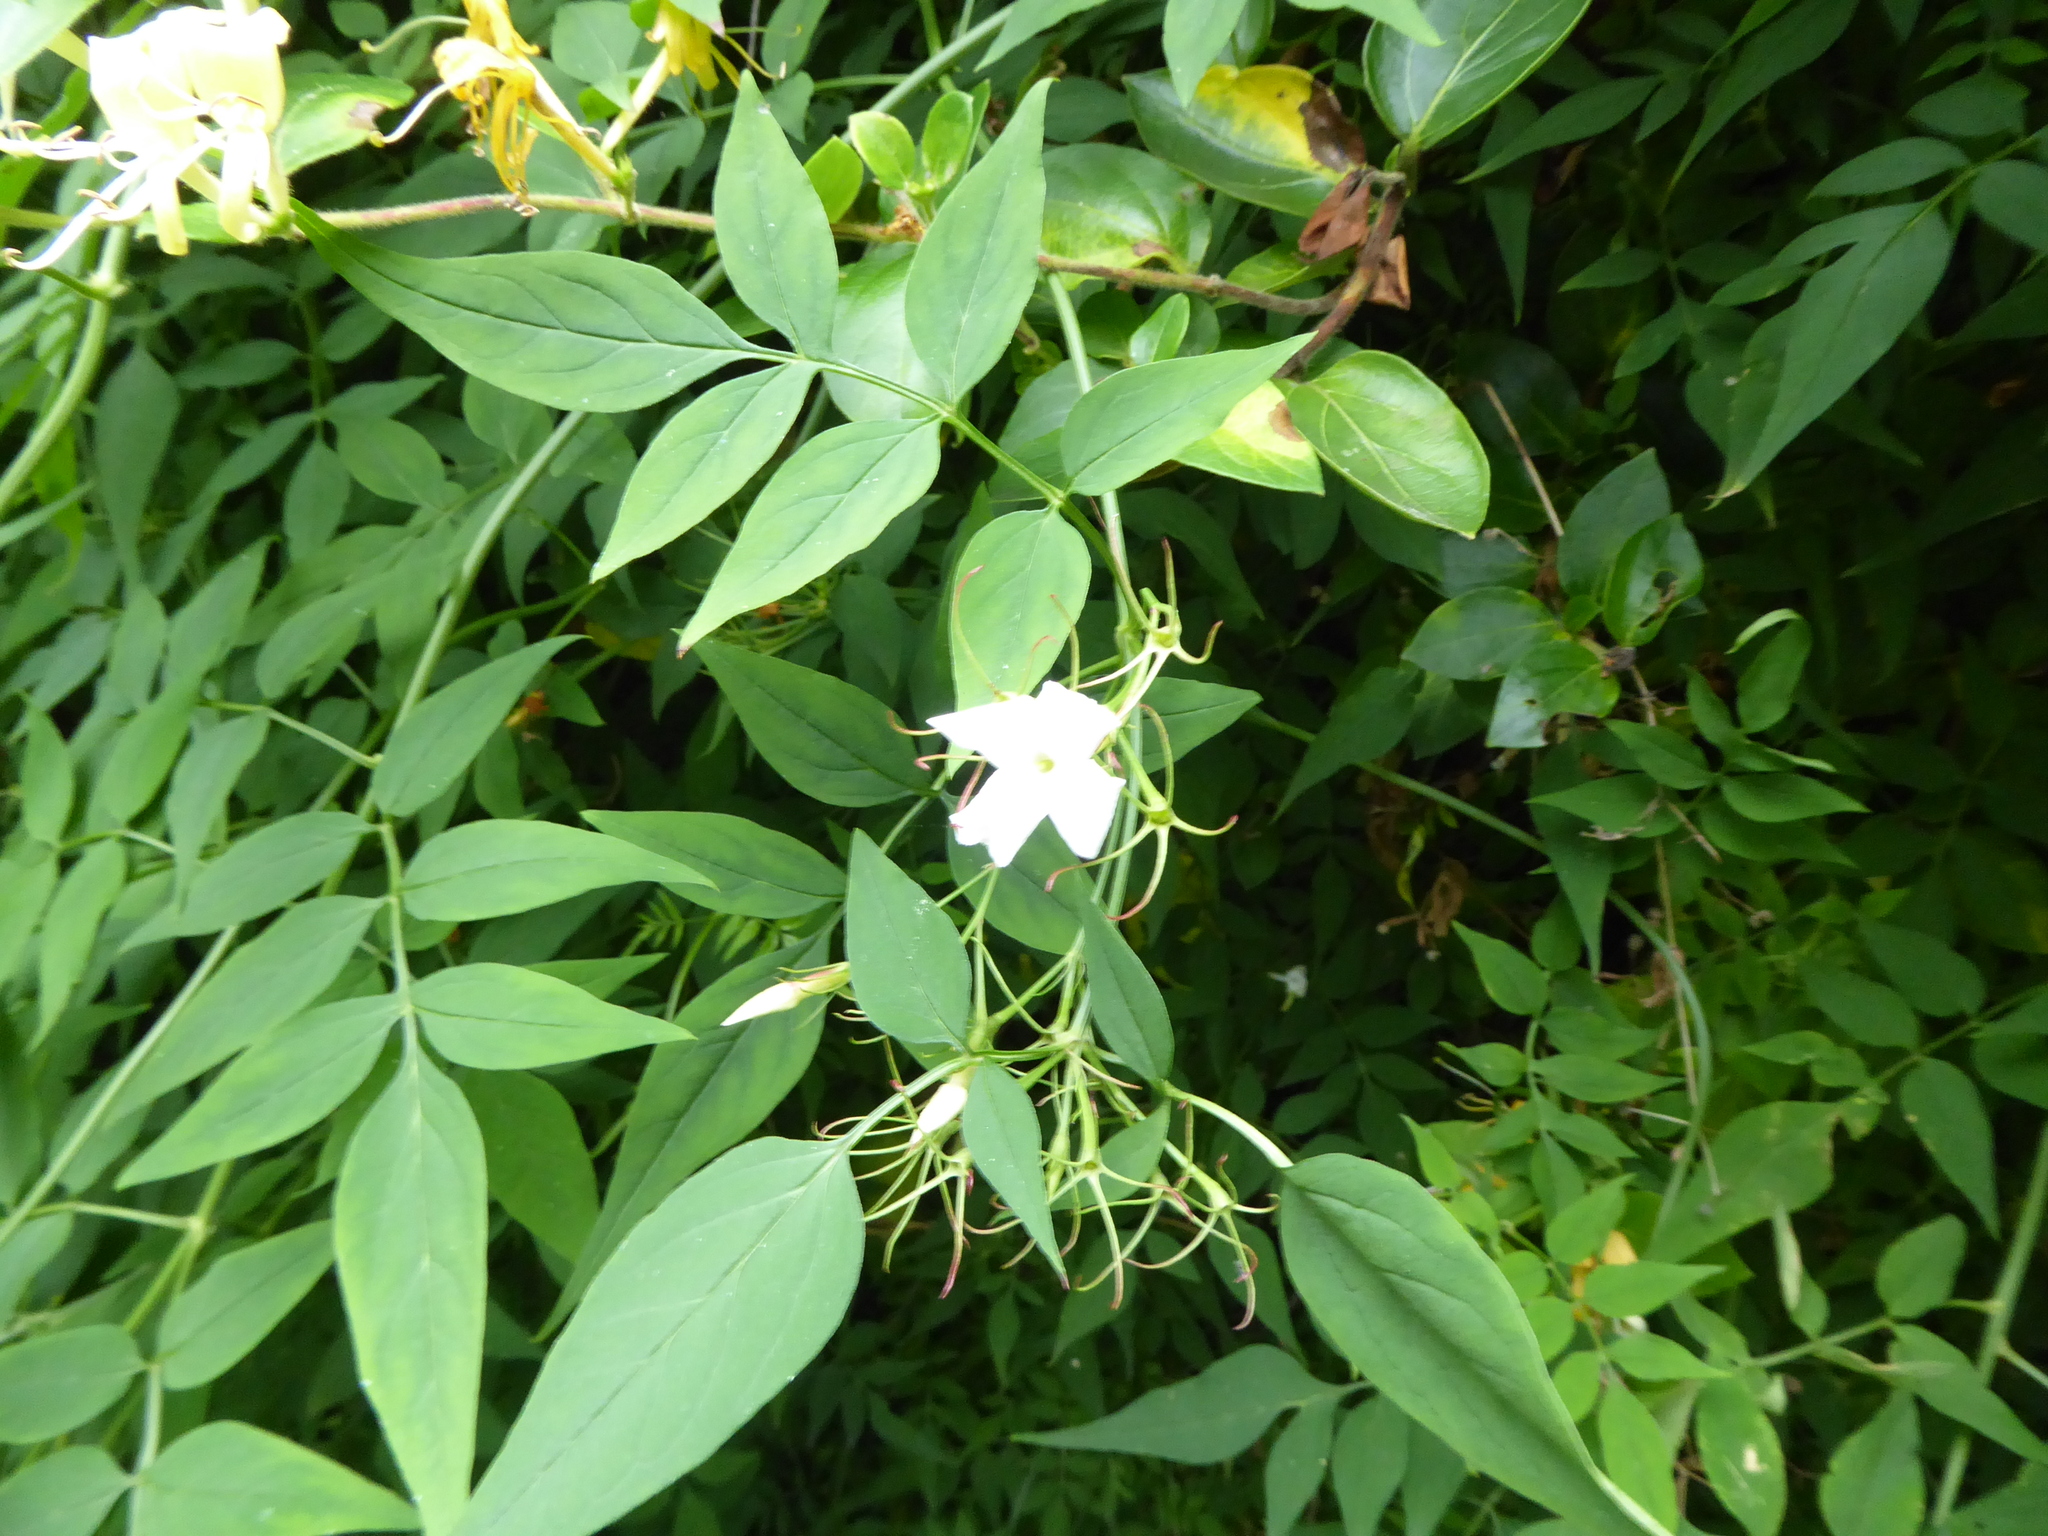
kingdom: Plantae
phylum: Tracheophyta
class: Magnoliopsida
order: Lamiales
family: Oleaceae
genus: Jasminum
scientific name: Jasminum officinale
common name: Summer jasmine
